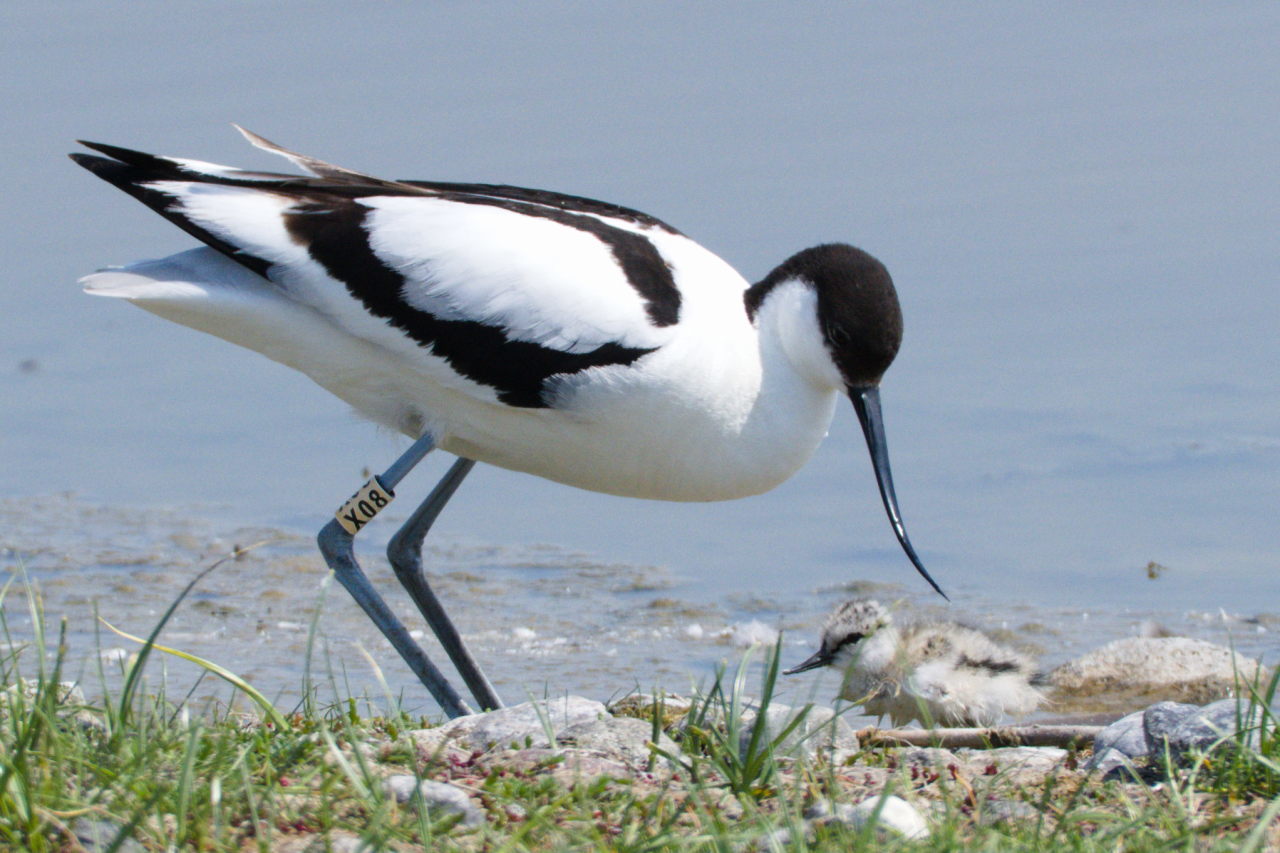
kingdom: Animalia
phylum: Chordata
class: Aves
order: Charadriiformes
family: Recurvirostridae
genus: Recurvirostra
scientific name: Recurvirostra avosetta
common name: Pied avocet
